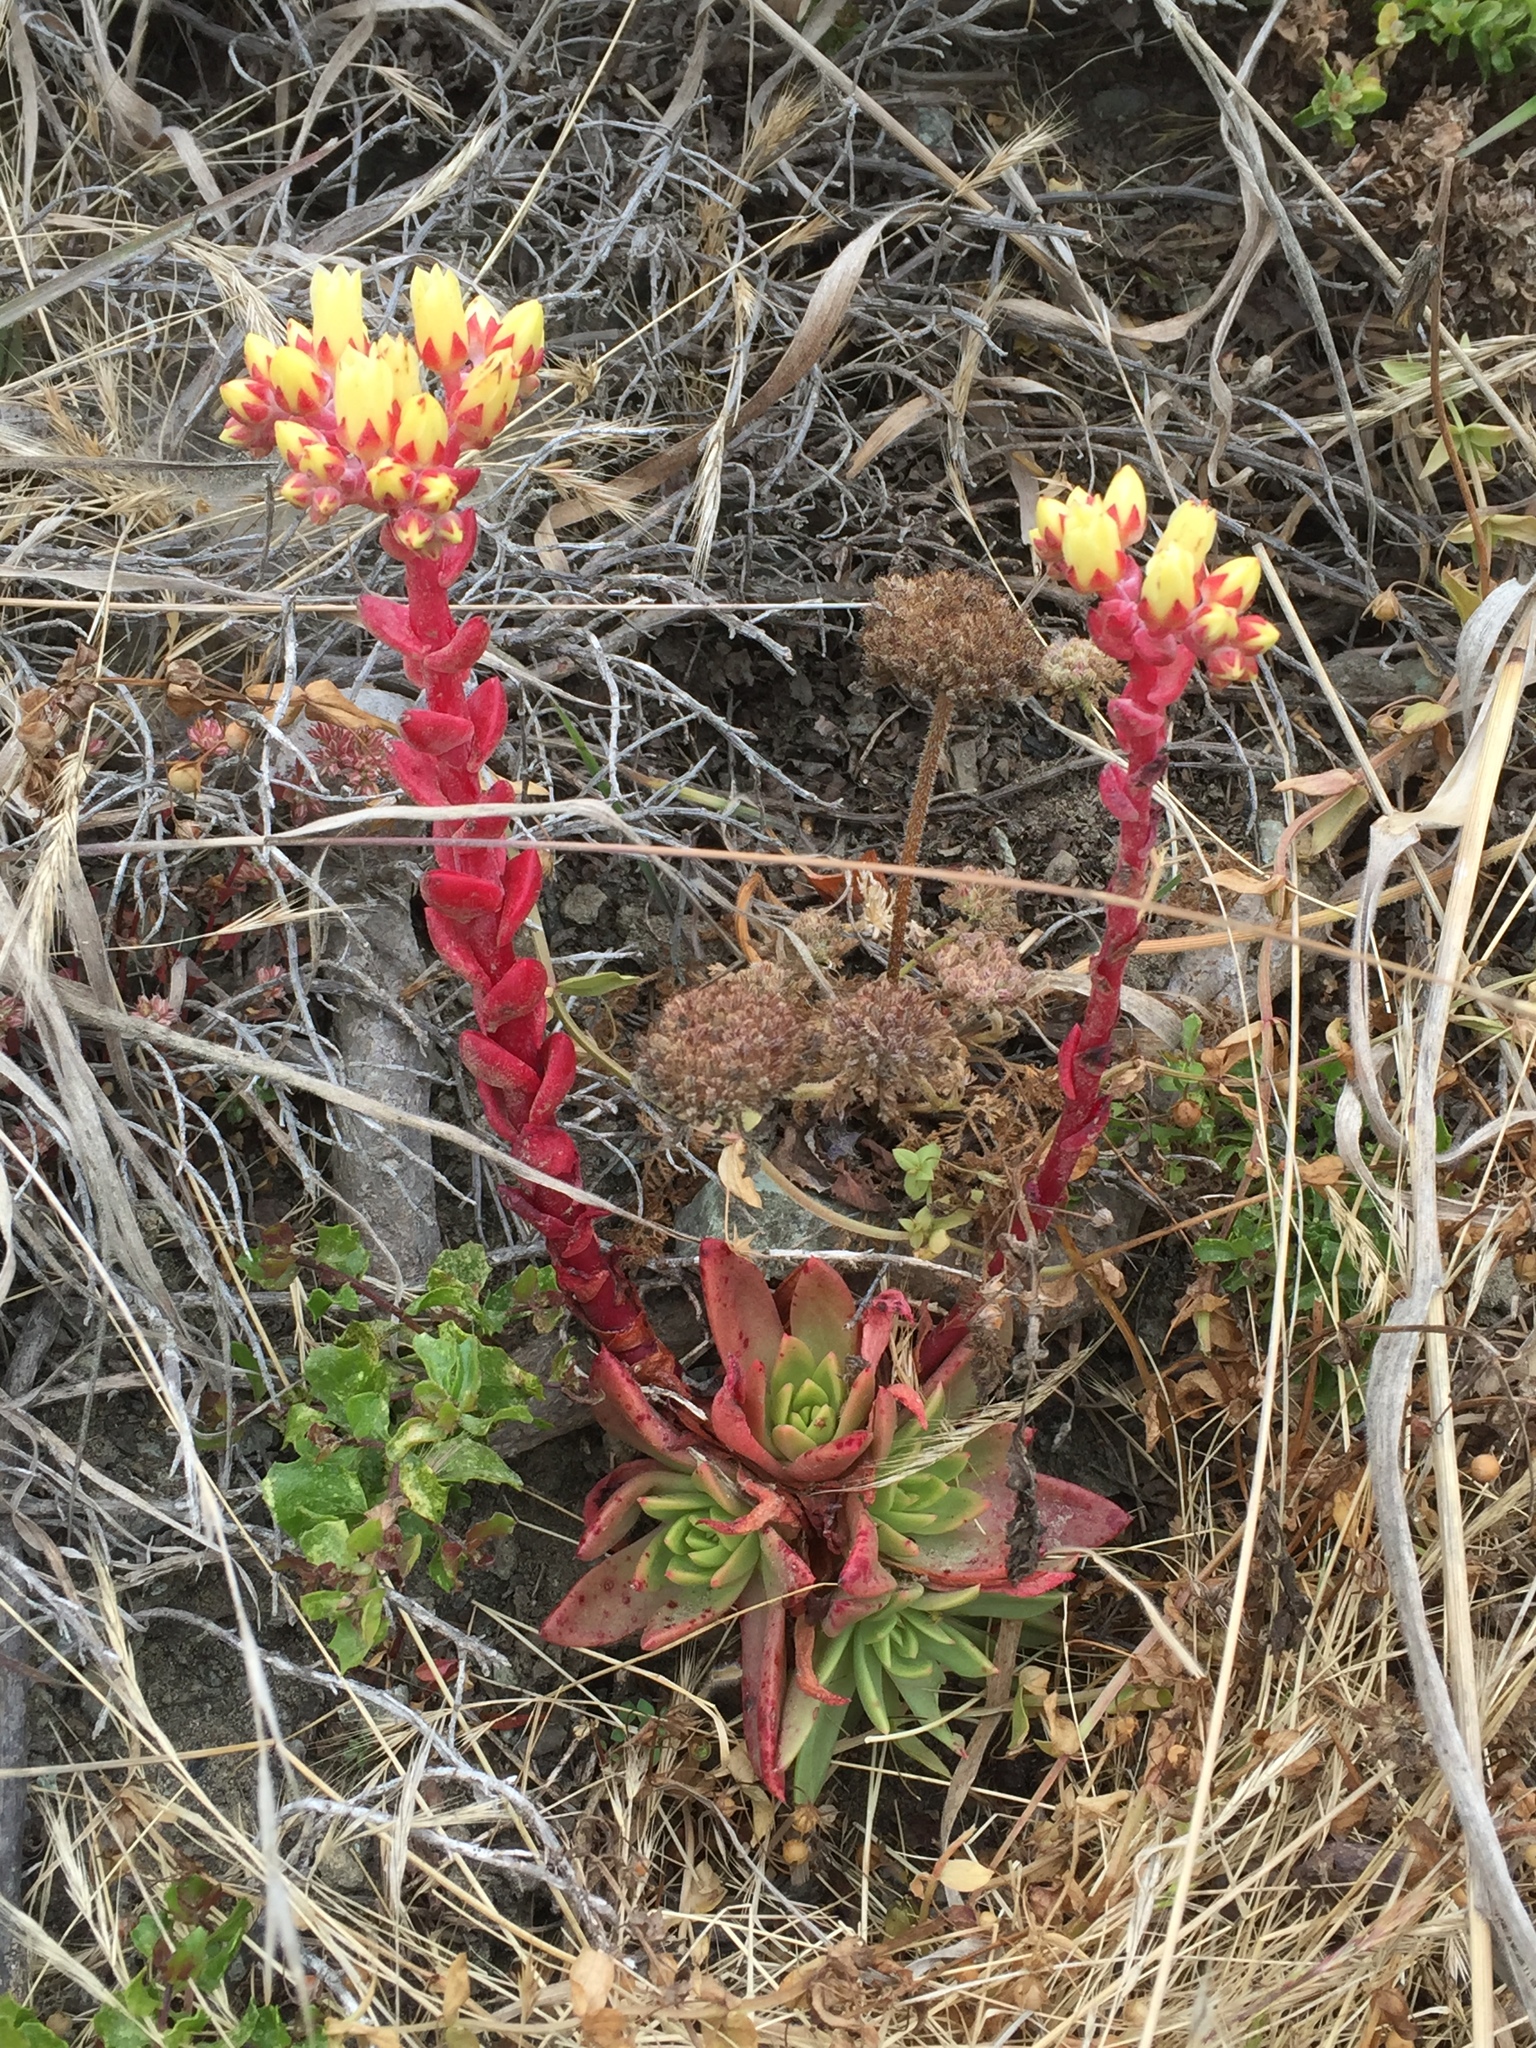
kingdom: Plantae
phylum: Tracheophyta
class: Magnoliopsida
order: Saxifragales
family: Crassulaceae
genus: Dudleya
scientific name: Dudleya farinosa
